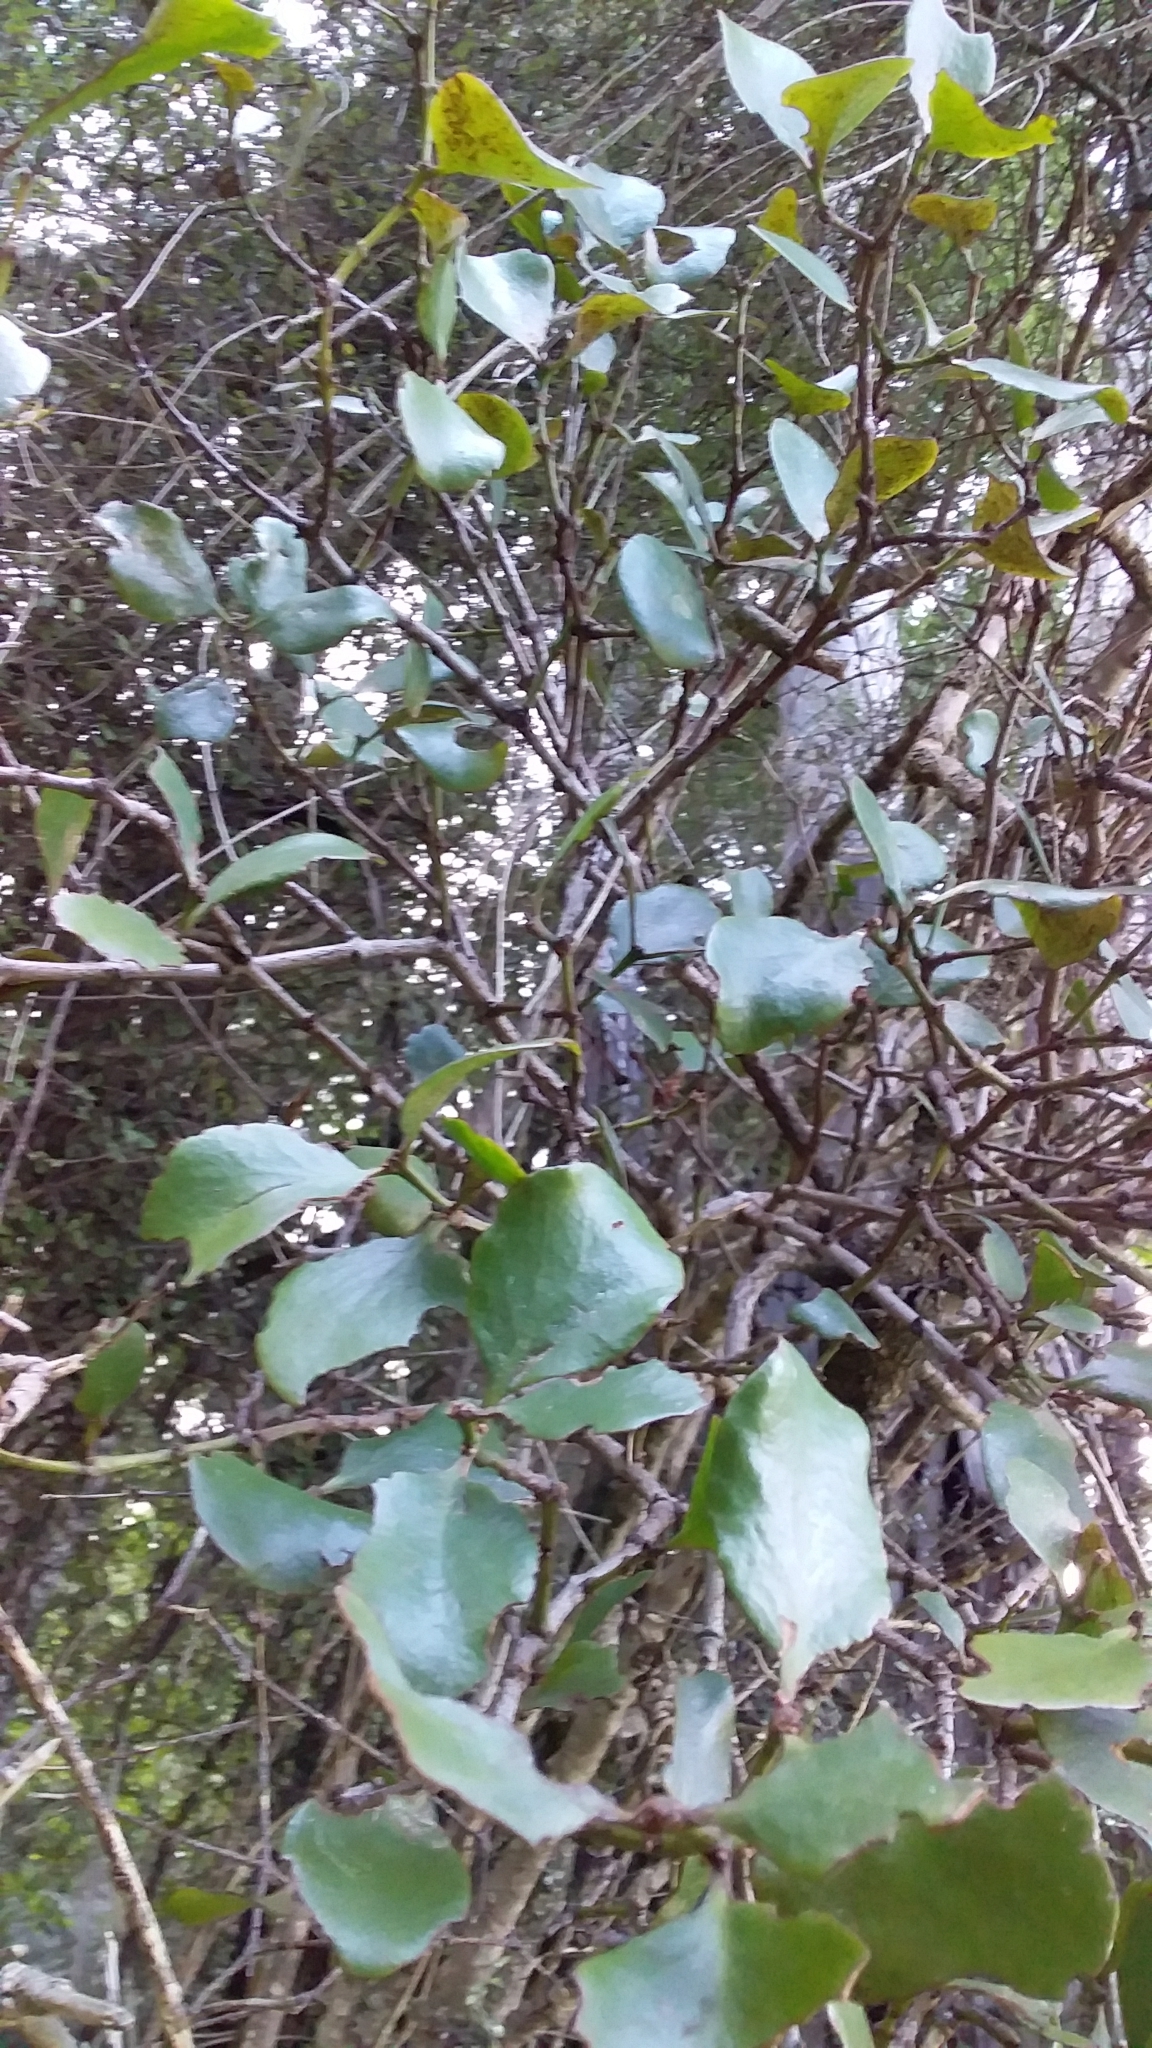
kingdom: Plantae
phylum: Tracheophyta
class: Magnoliopsida
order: Santalales
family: Loranthaceae
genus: Ileostylus
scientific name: Ileostylus micranthus
